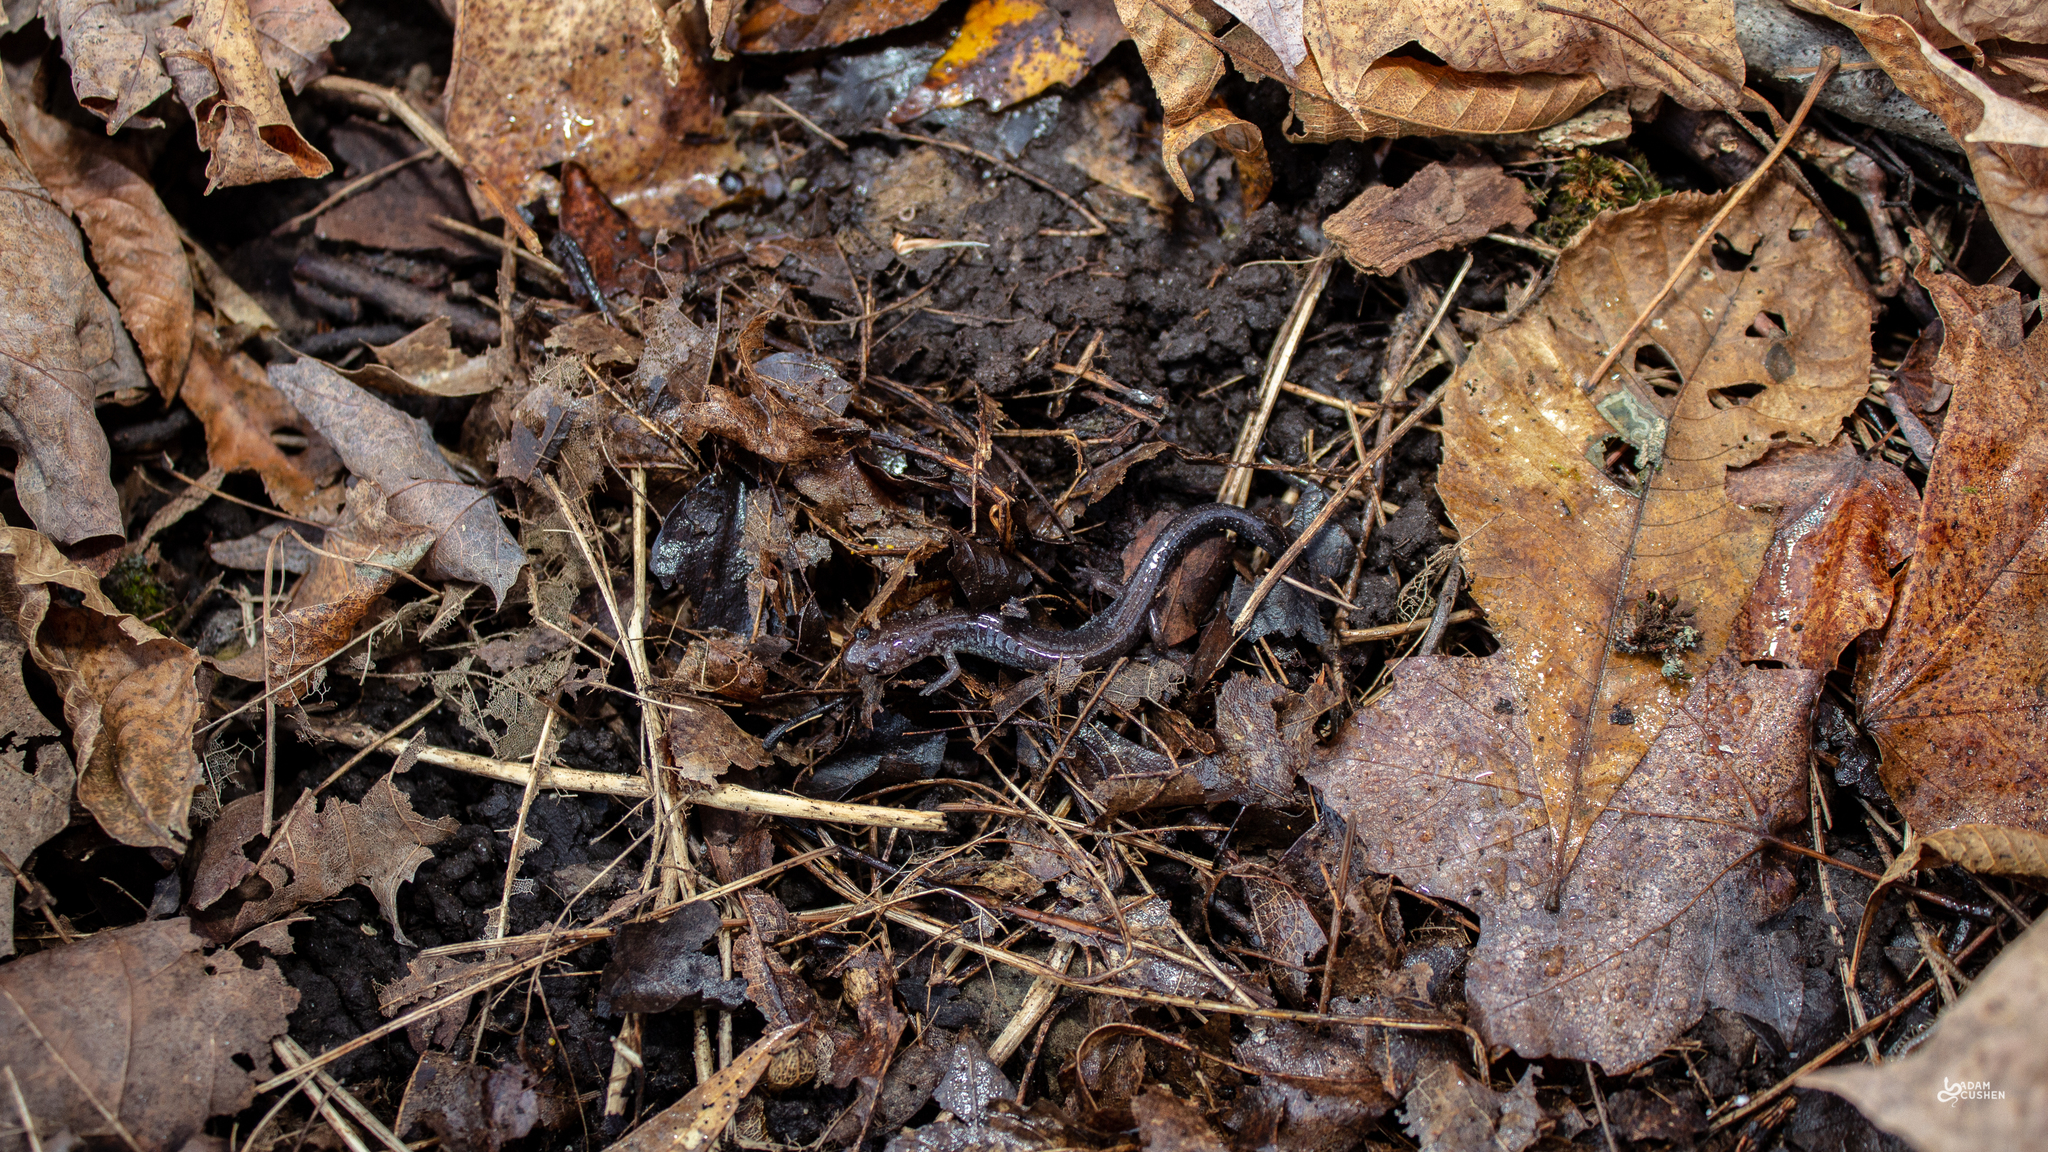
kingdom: Animalia
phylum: Chordata
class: Amphibia
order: Caudata
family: Plethodontidae
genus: Plethodon
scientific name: Plethodon cinereus
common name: Redback salamander
